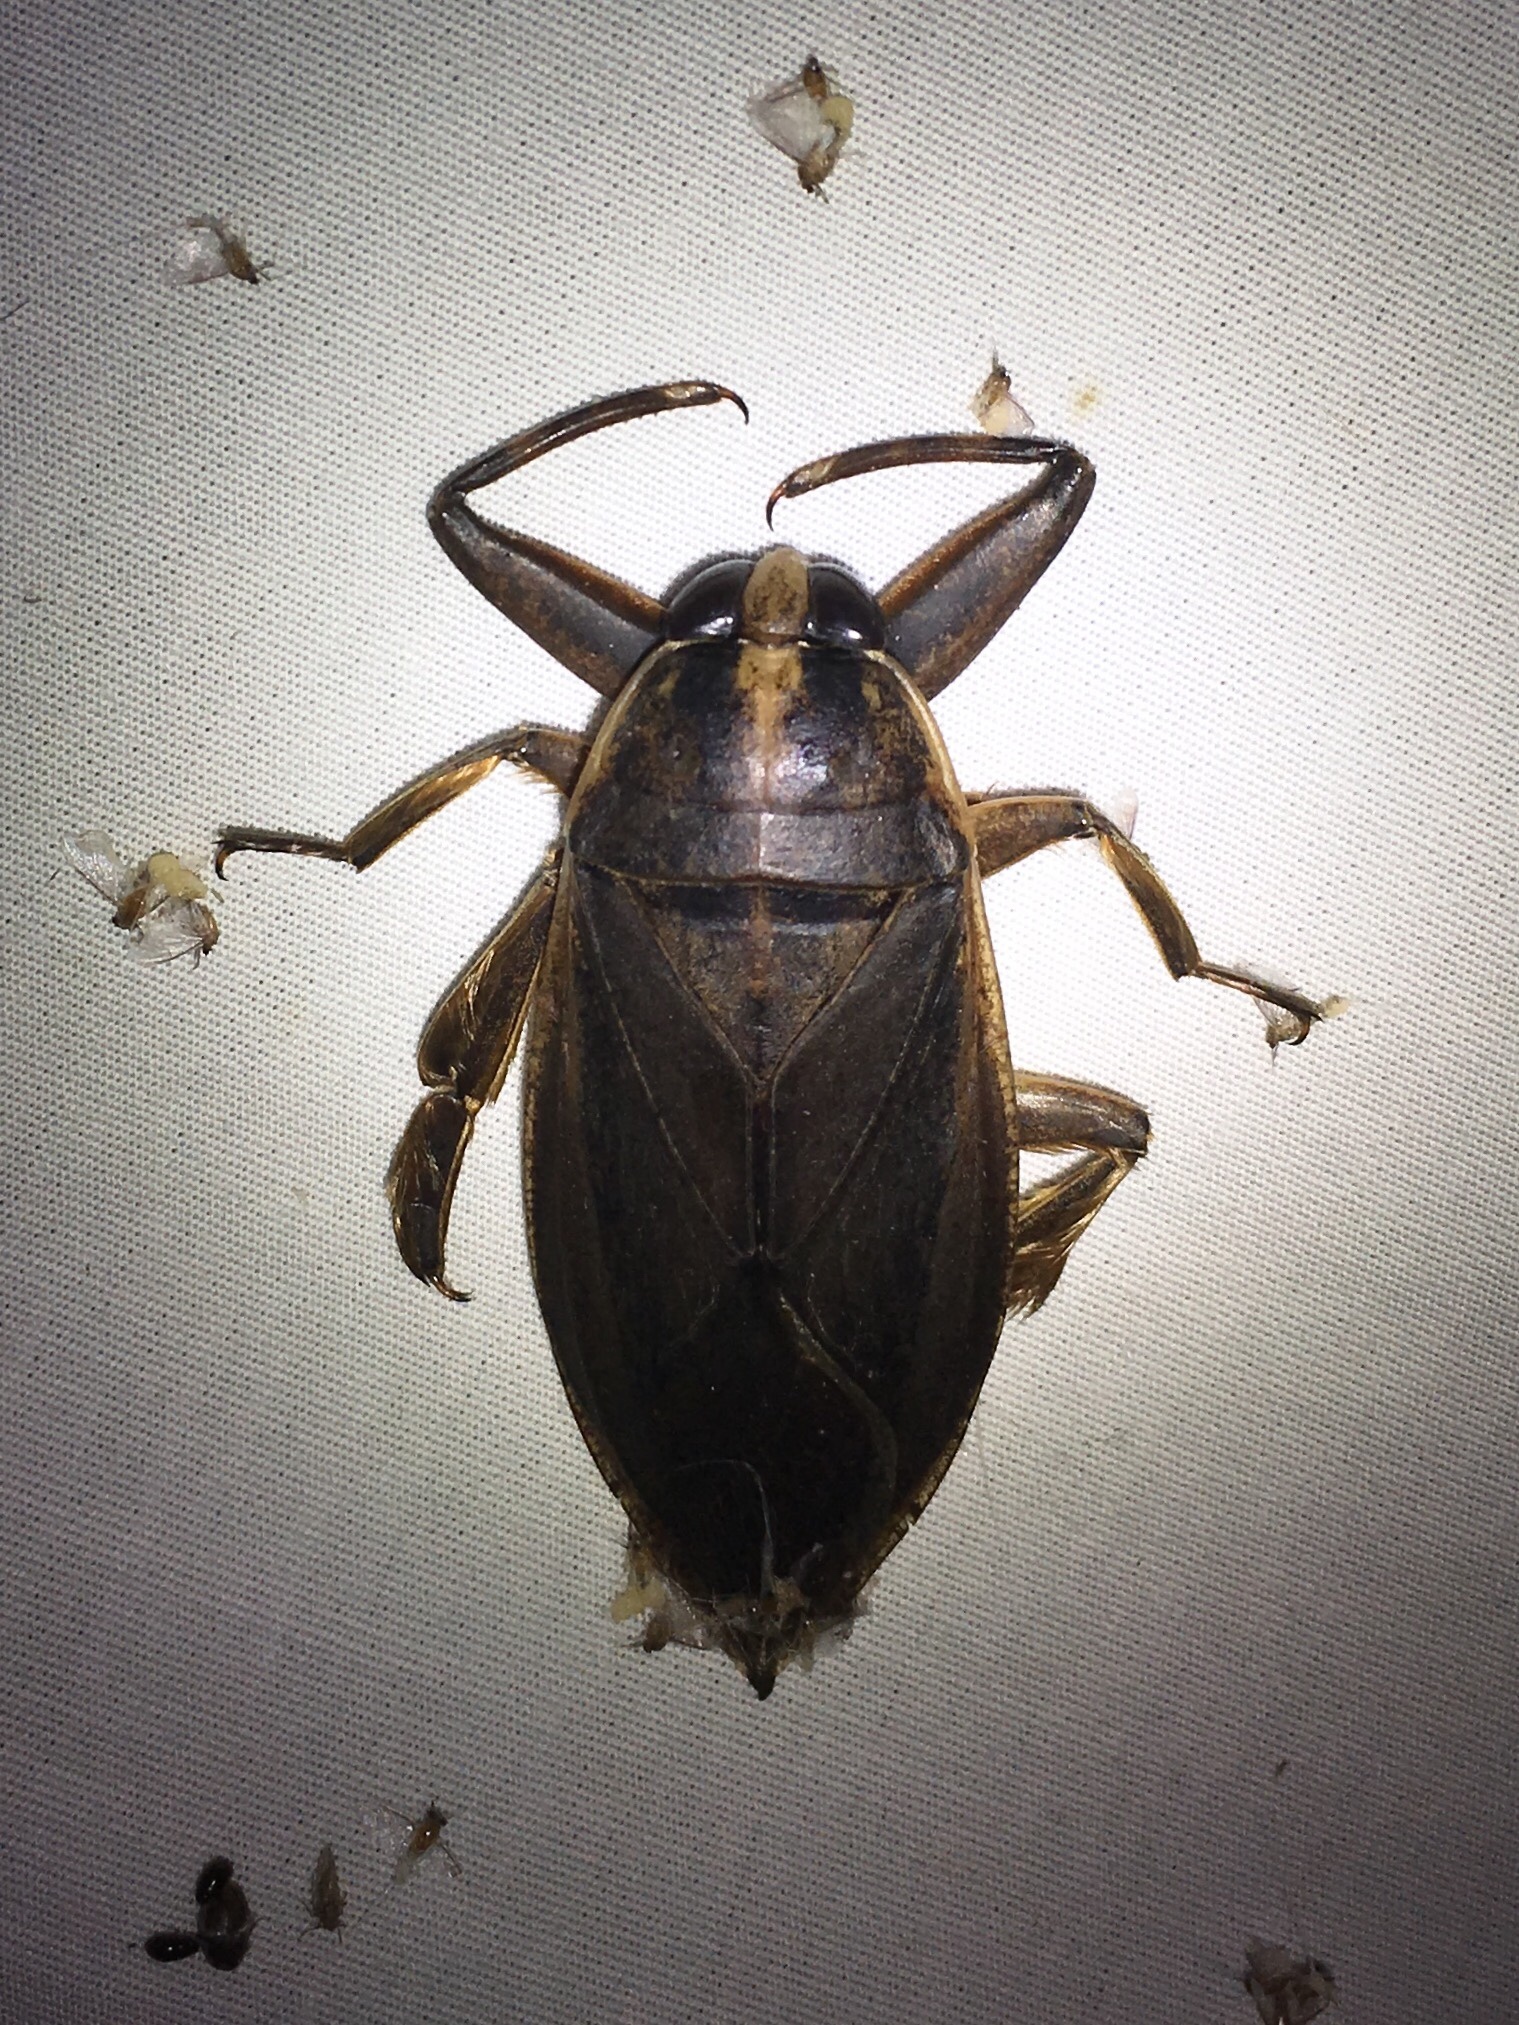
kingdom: Animalia
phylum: Arthropoda
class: Insecta
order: Hemiptera
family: Belostomatidae
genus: Benacus
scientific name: Benacus griseus
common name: Eastern toe-biter
